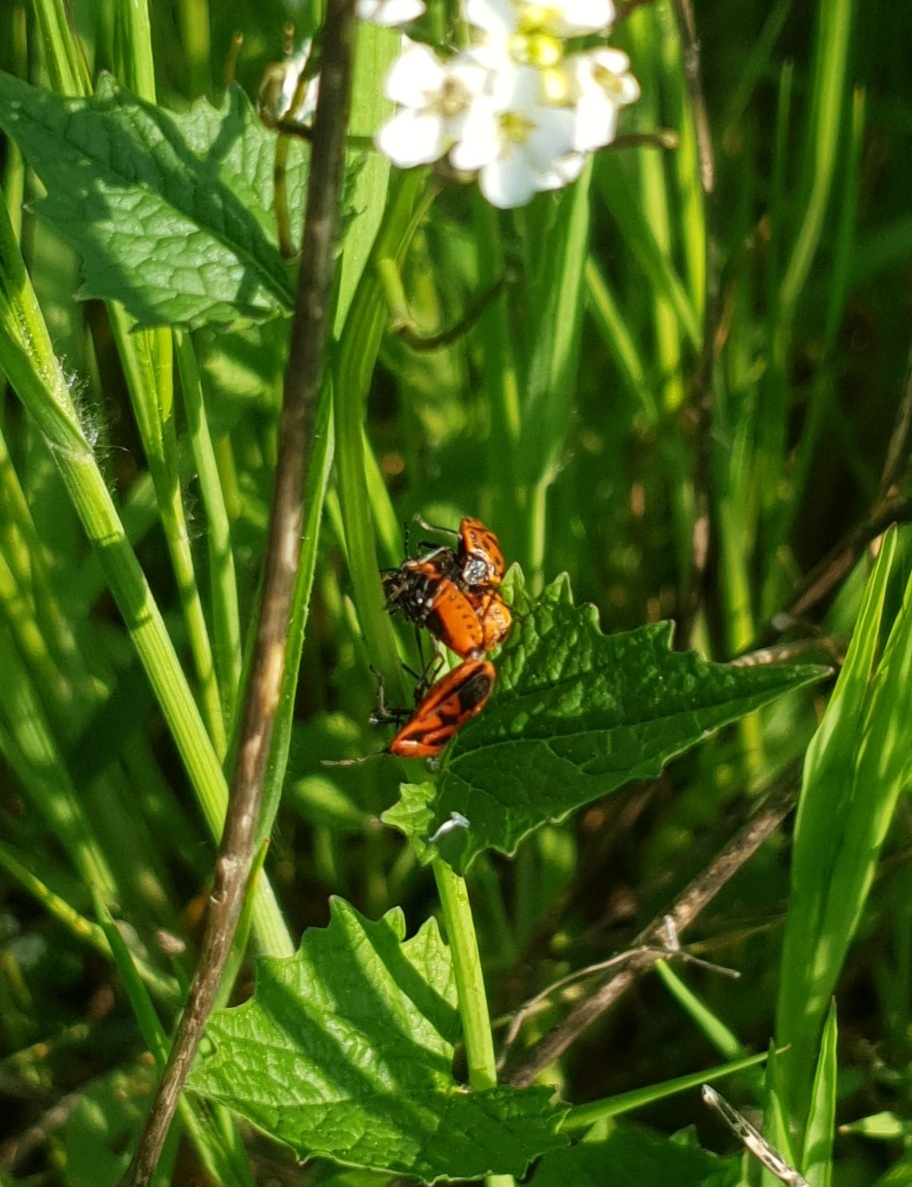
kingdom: Animalia
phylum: Arthropoda
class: Insecta
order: Hemiptera
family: Pentatomidae
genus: Eurydema
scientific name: Eurydema ornata
